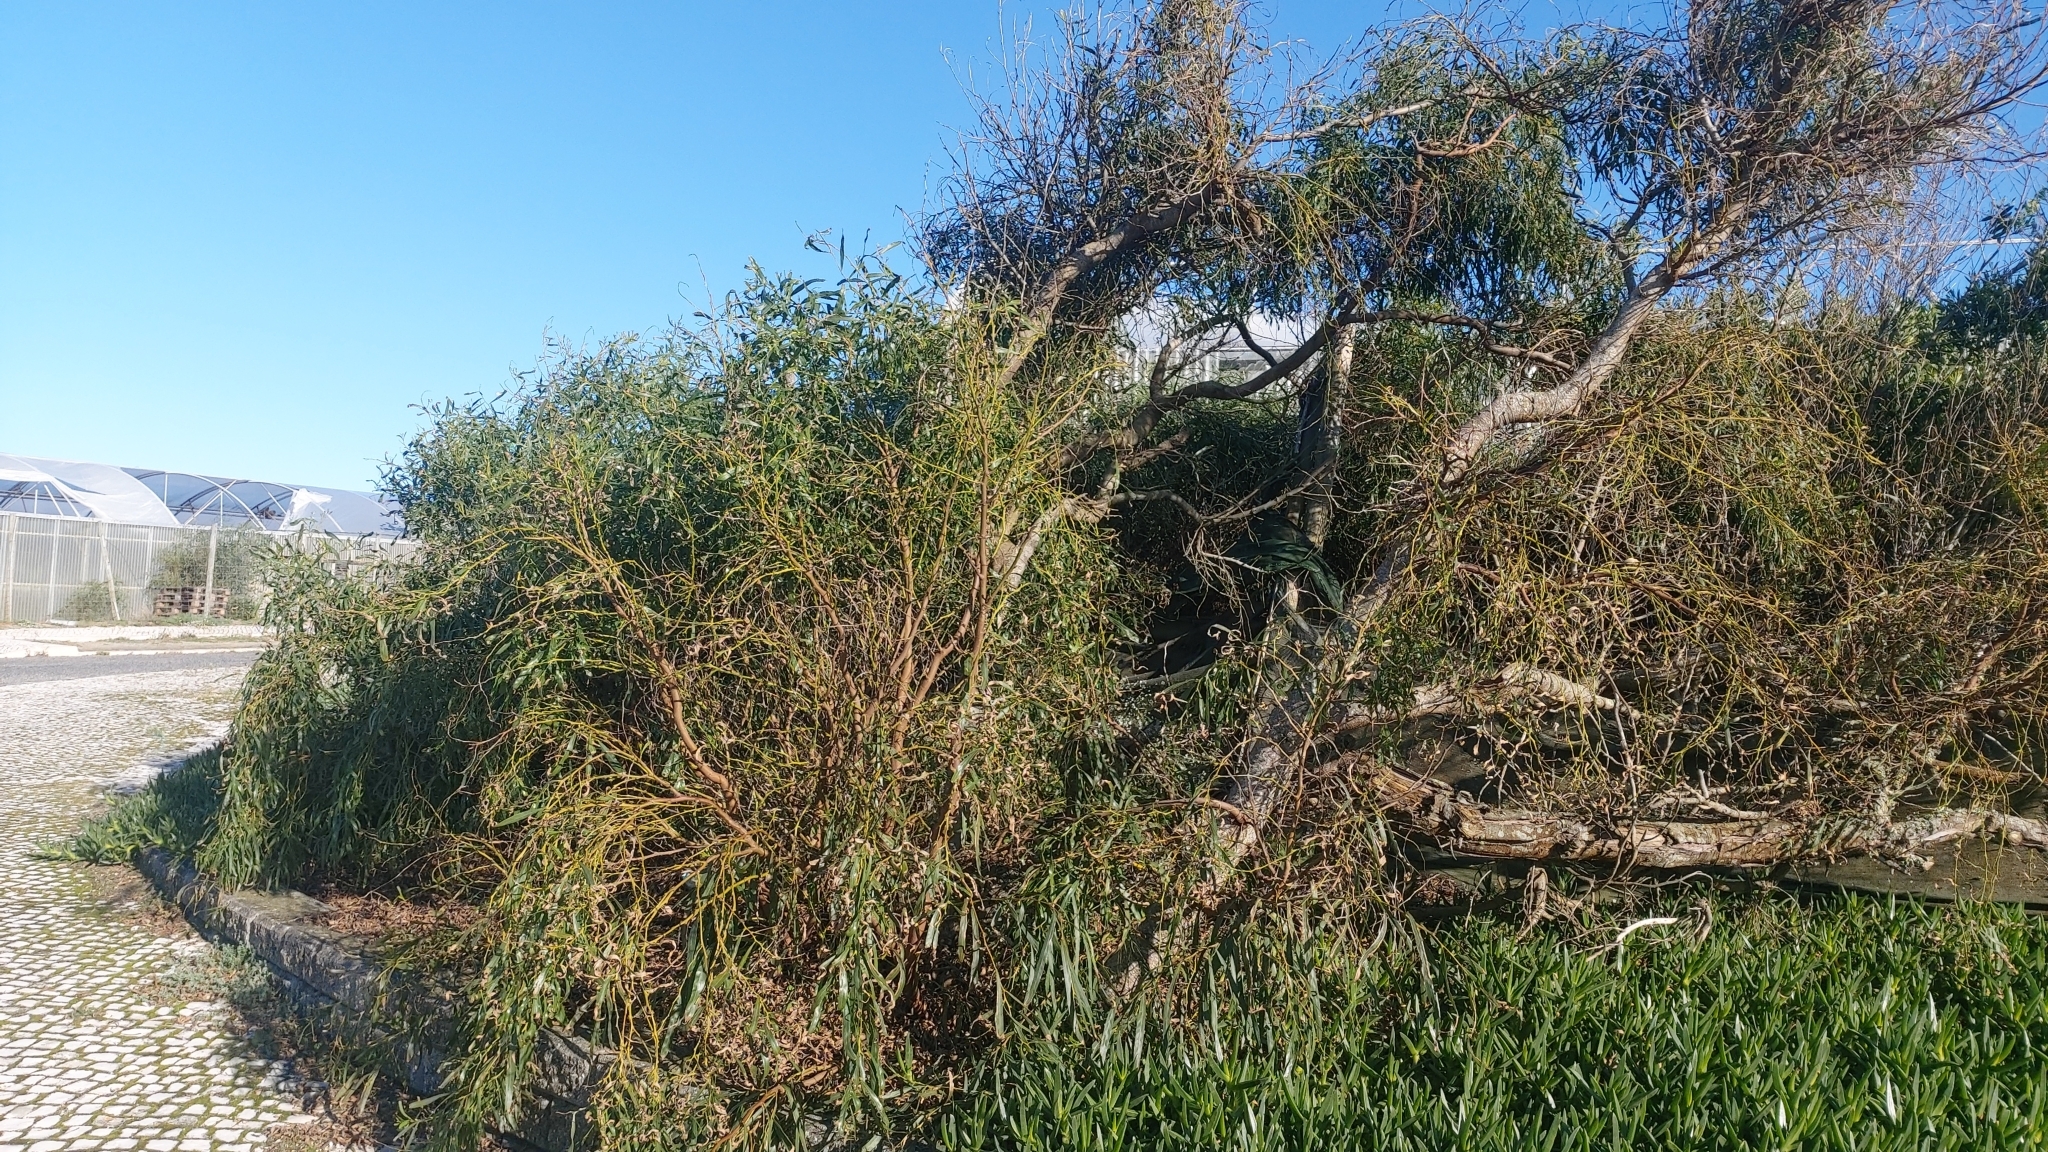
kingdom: Plantae
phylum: Tracheophyta
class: Magnoliopsida
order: Fabales
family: Fabaceae
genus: Acacia
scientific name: Acacia saligna
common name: Orange wattle
